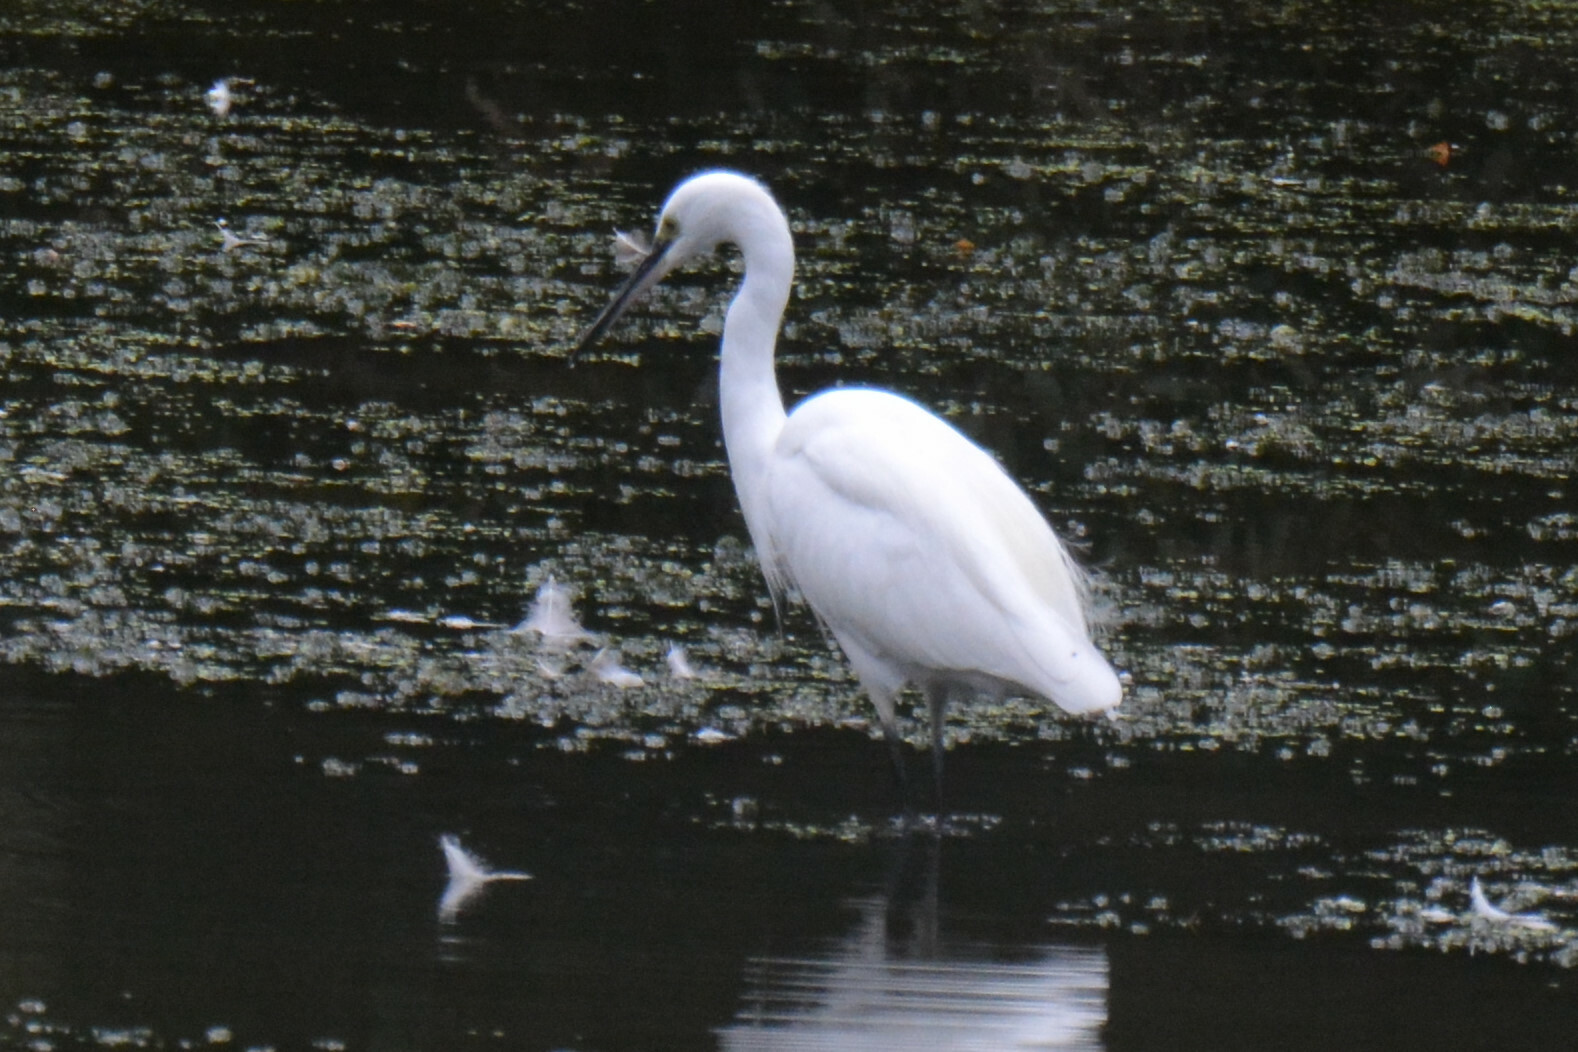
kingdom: Animalia
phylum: Chordata
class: Aves
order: Pelecaniformes
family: Ardeidae
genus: Egretta
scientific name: Egretta garzetta
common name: Little egret
